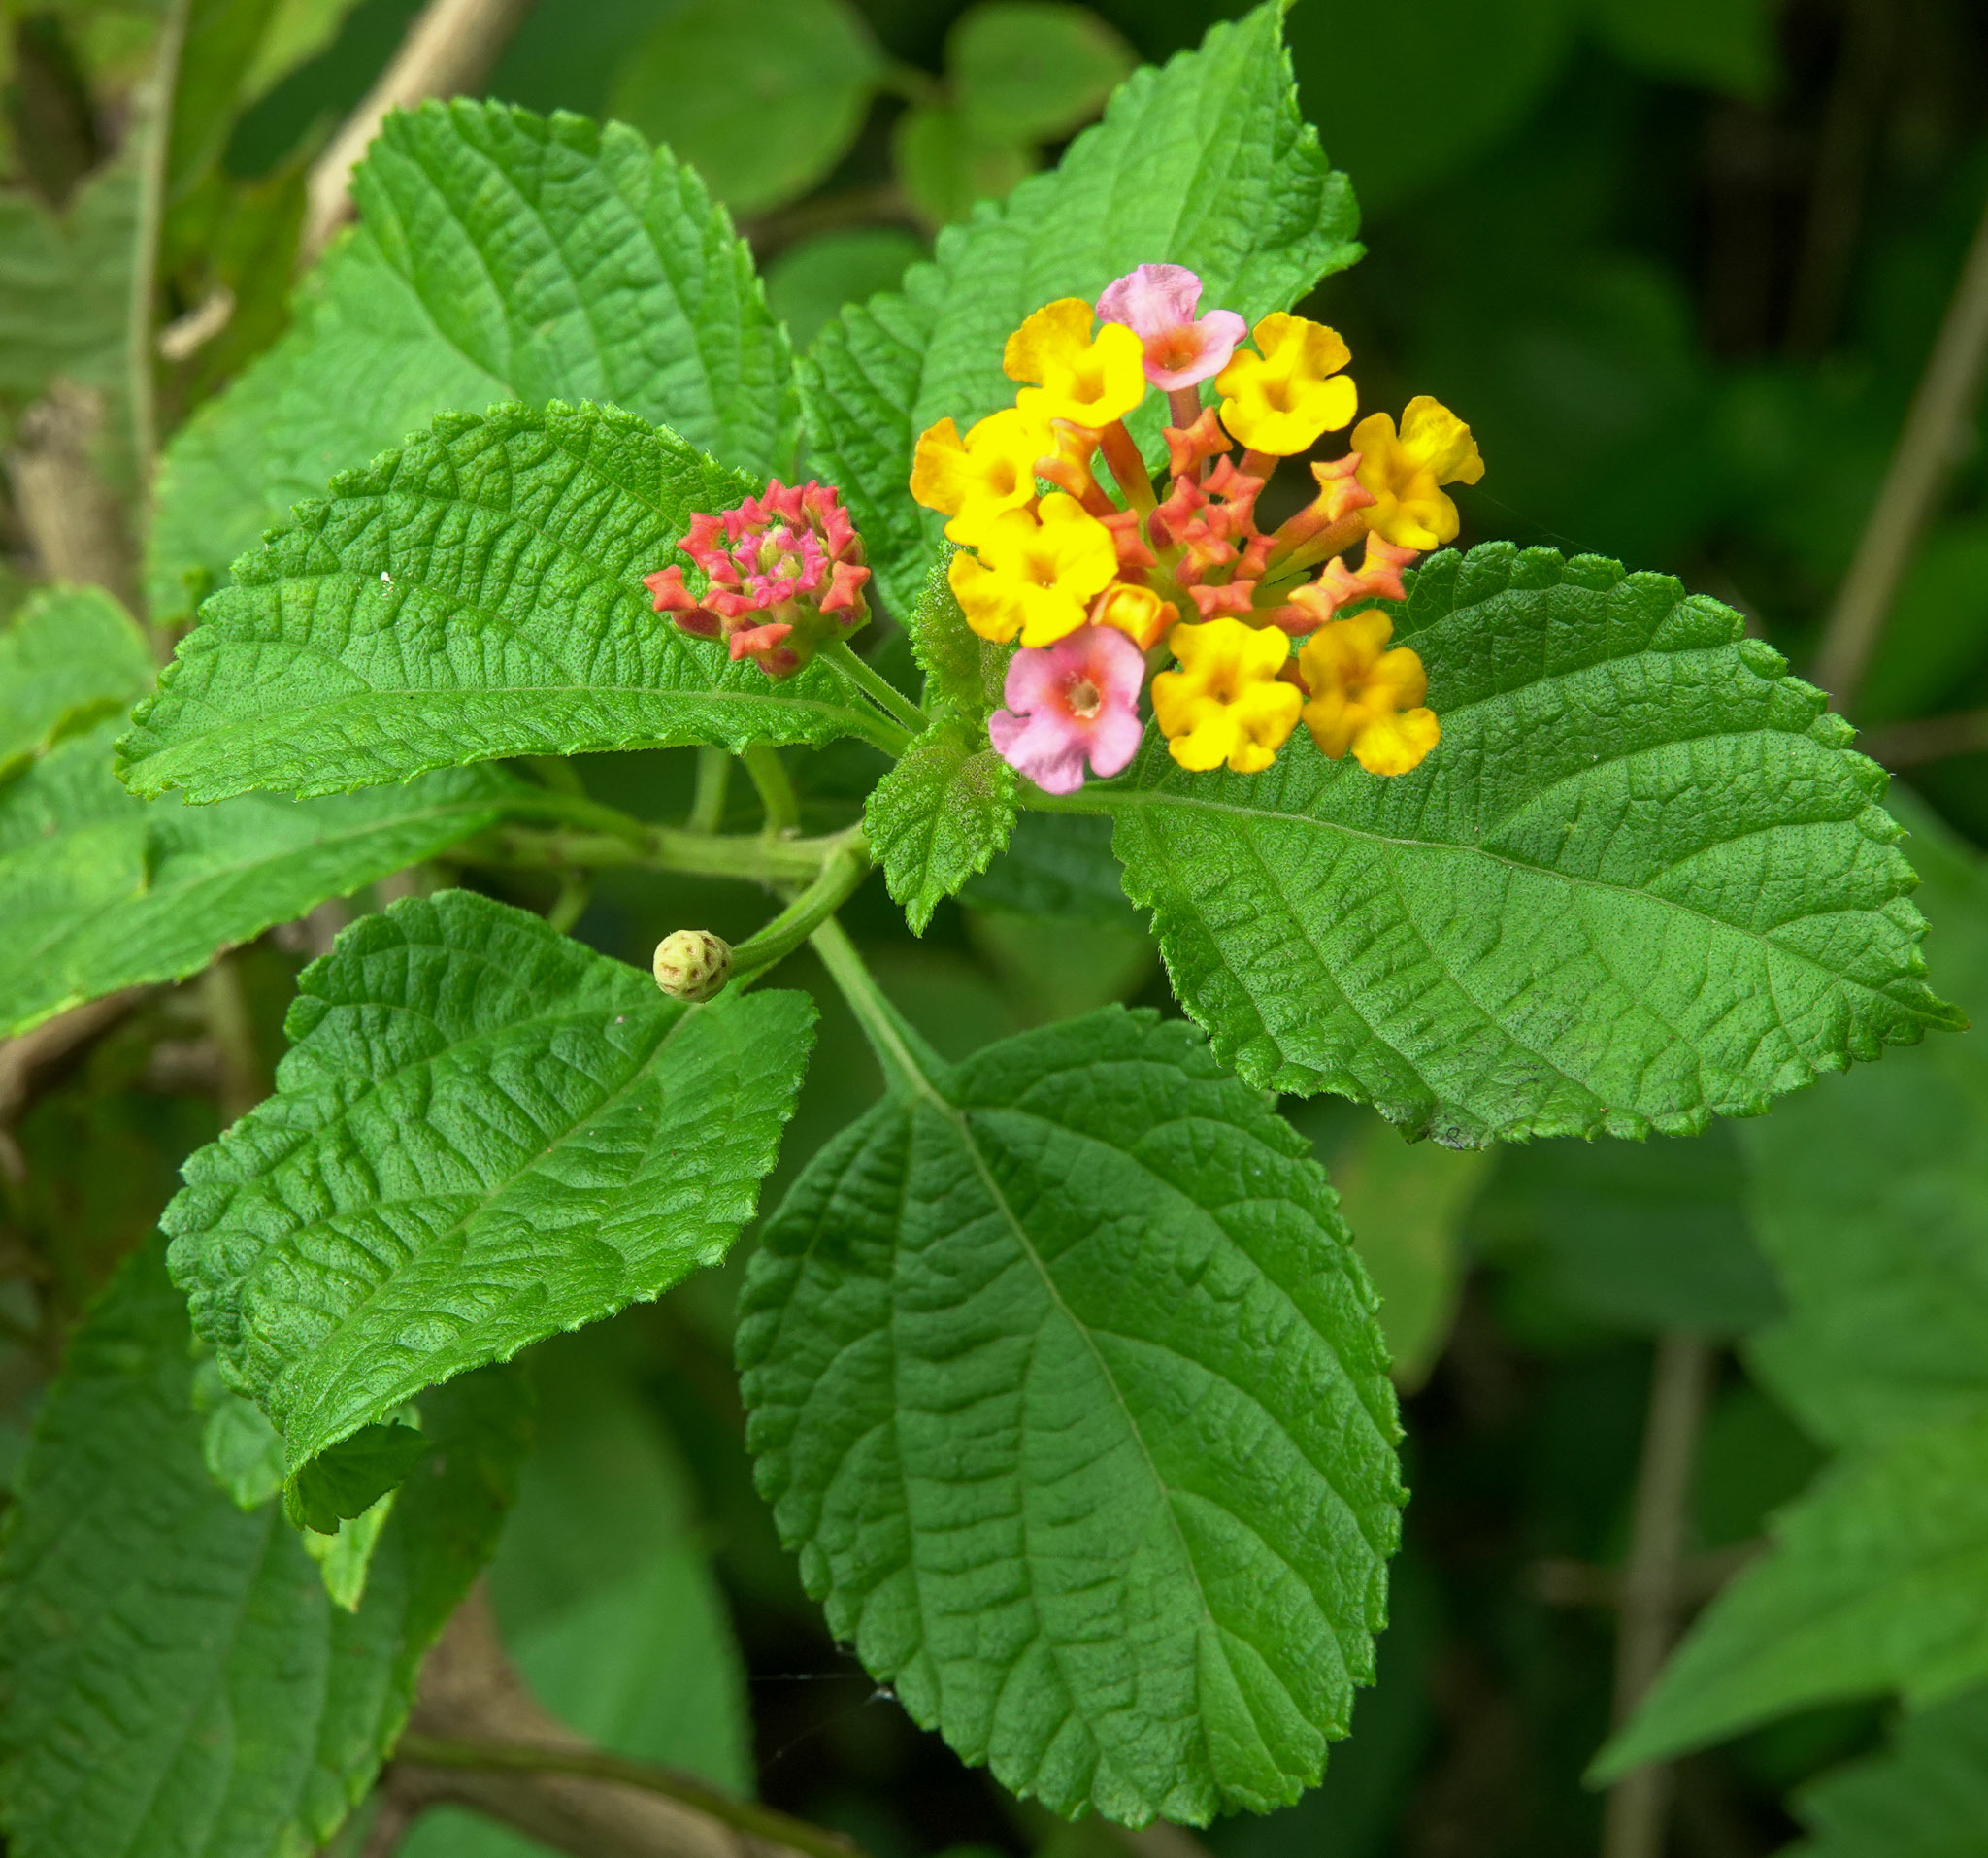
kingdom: Plantae
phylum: Tracheophyta
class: Magnoliopsida
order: Lamiales
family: Verbenaceae
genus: Lantana
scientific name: Lantana camara
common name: Lantana
